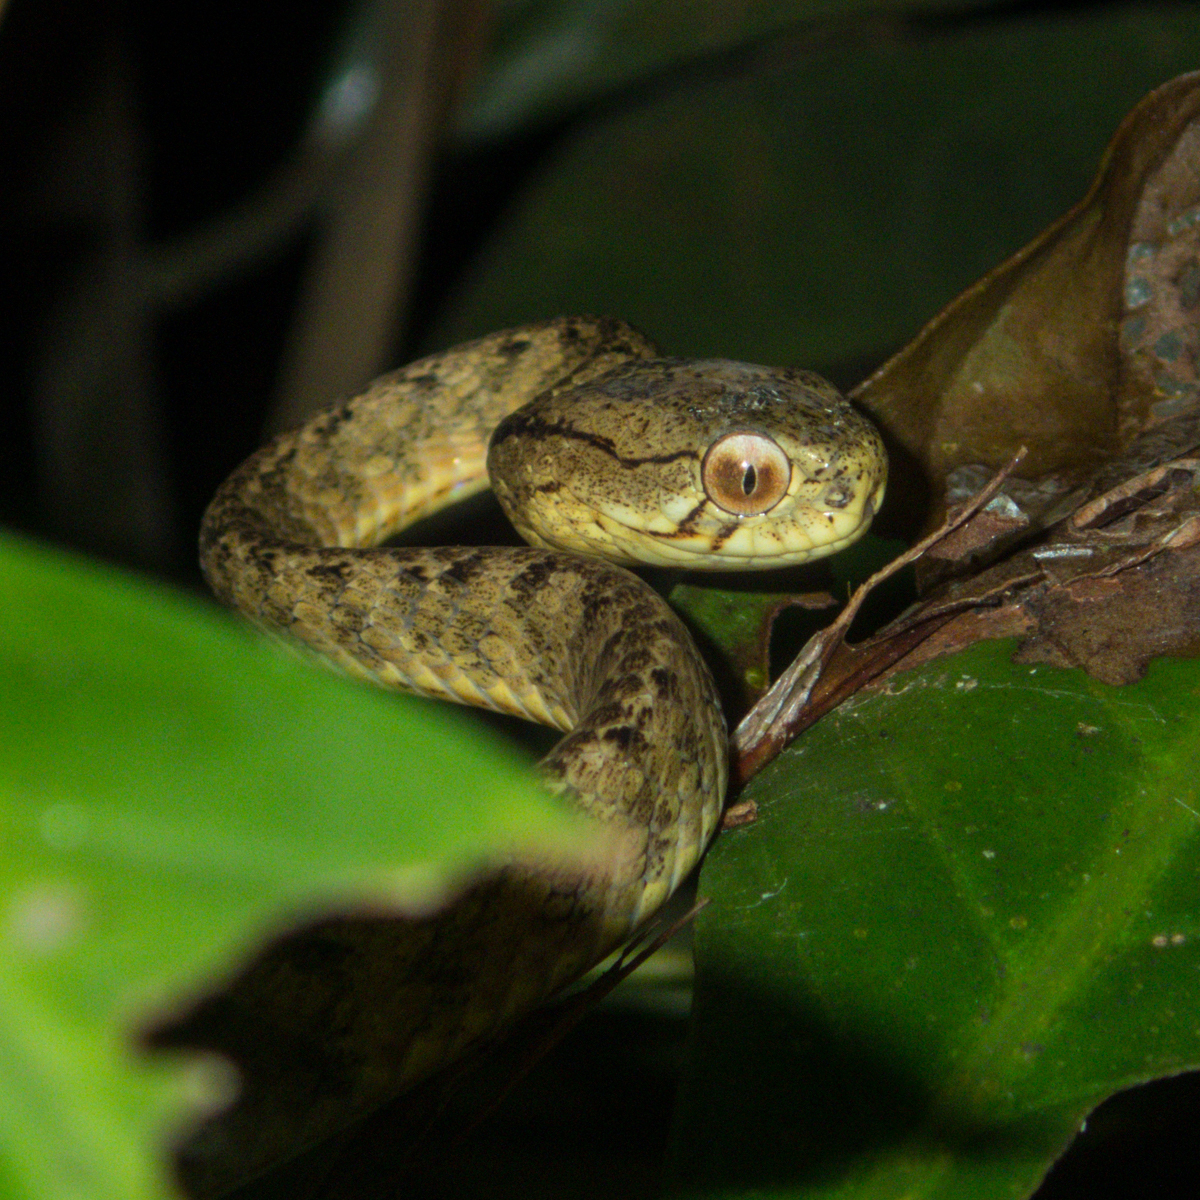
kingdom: Animalia
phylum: Chordata
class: Squamata
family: Pareidae
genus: Pareas
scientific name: Pareas carinatus
